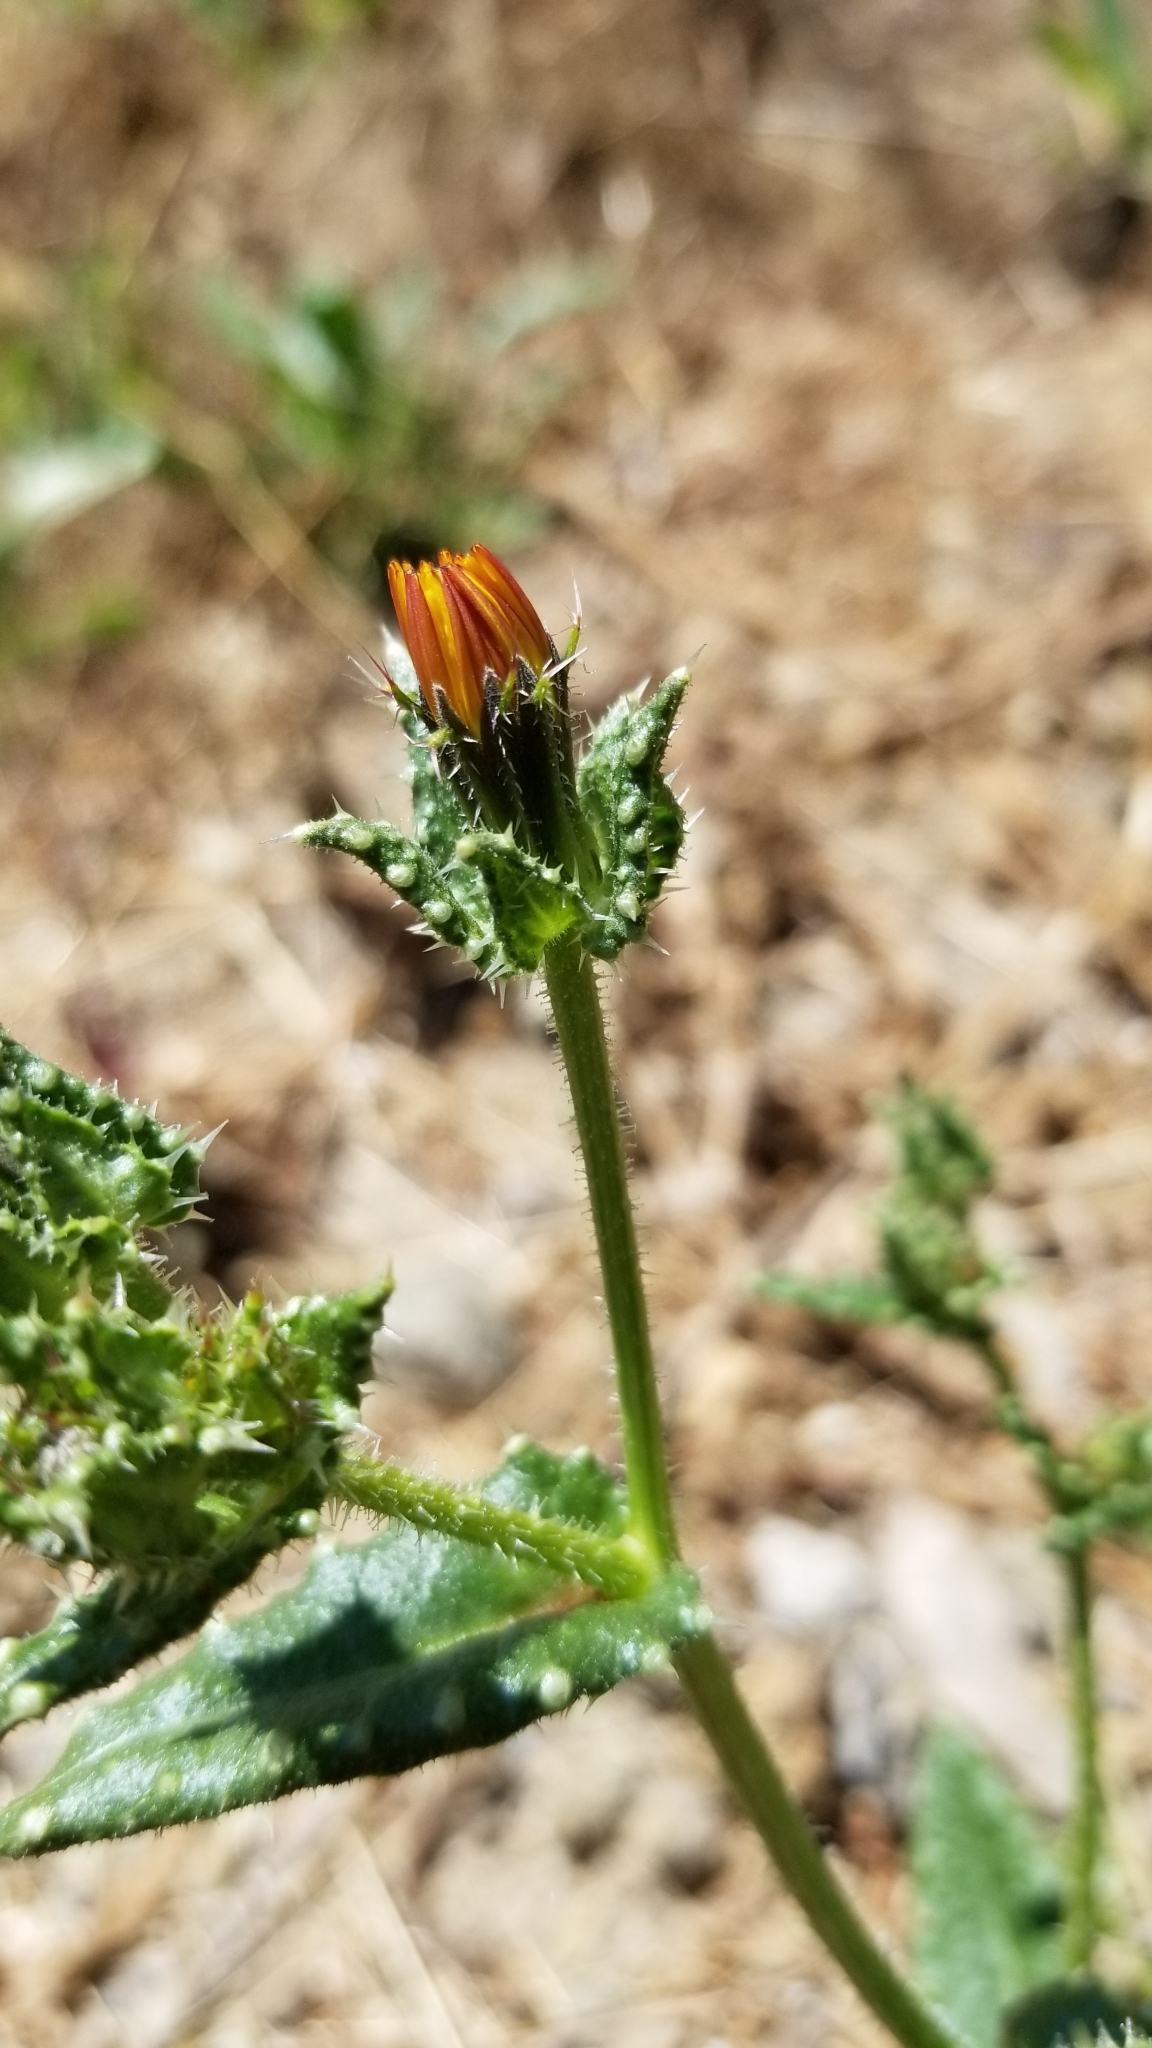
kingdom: Plantae
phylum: Tracheophyta
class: Magnoliopsida
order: Asterales
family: Asteraceae
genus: Helminthotheca
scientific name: Helminthotheca echioides
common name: Ox-tongue
